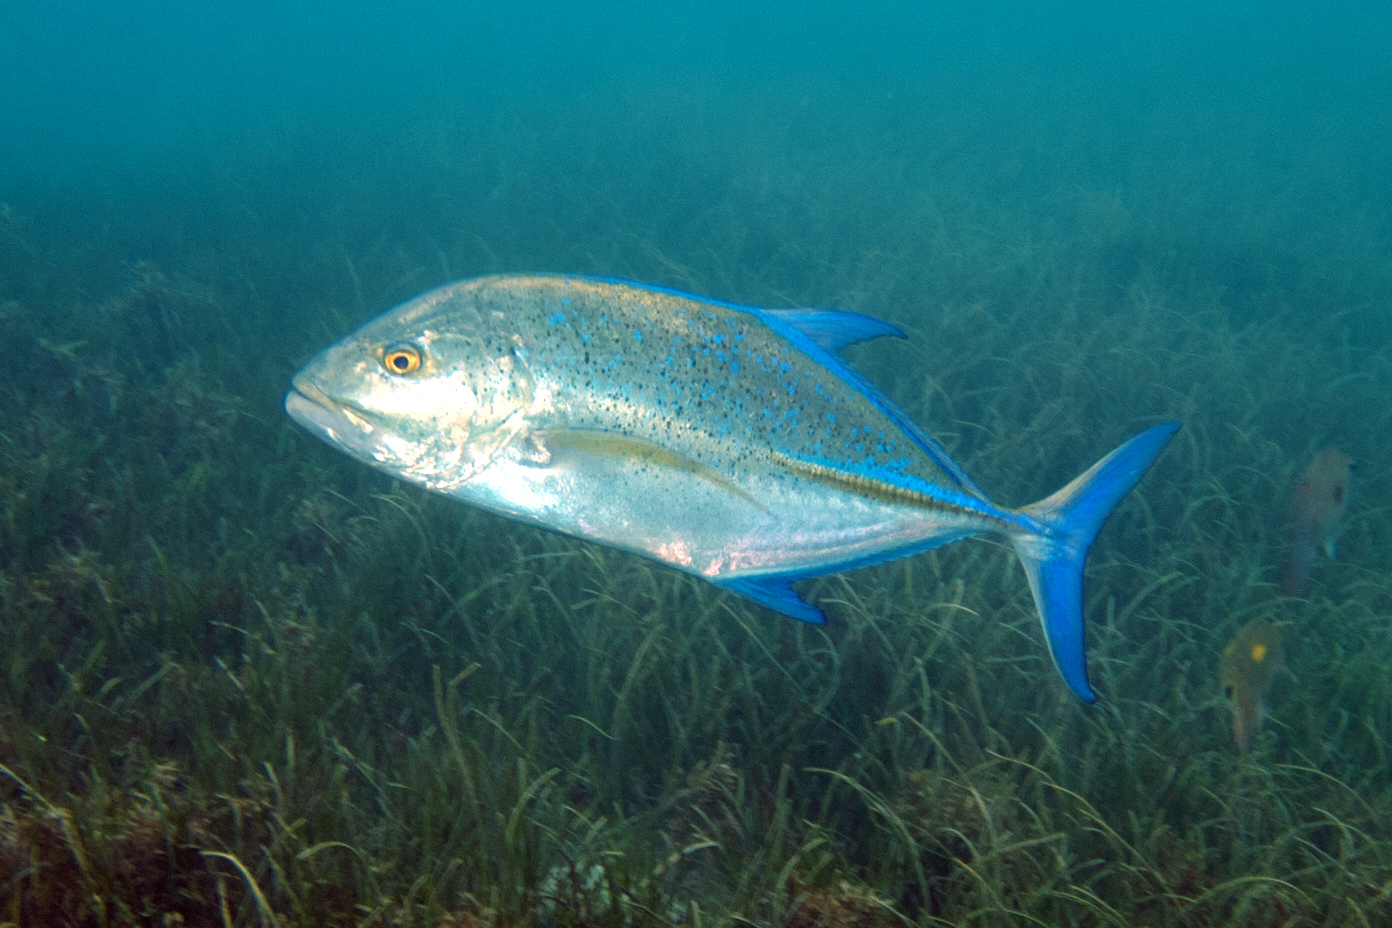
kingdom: Animalia
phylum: Chordata
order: Perciformes
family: Carangidae
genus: Caranx
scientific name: Caranx melampygus
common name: Bluefin trevally
